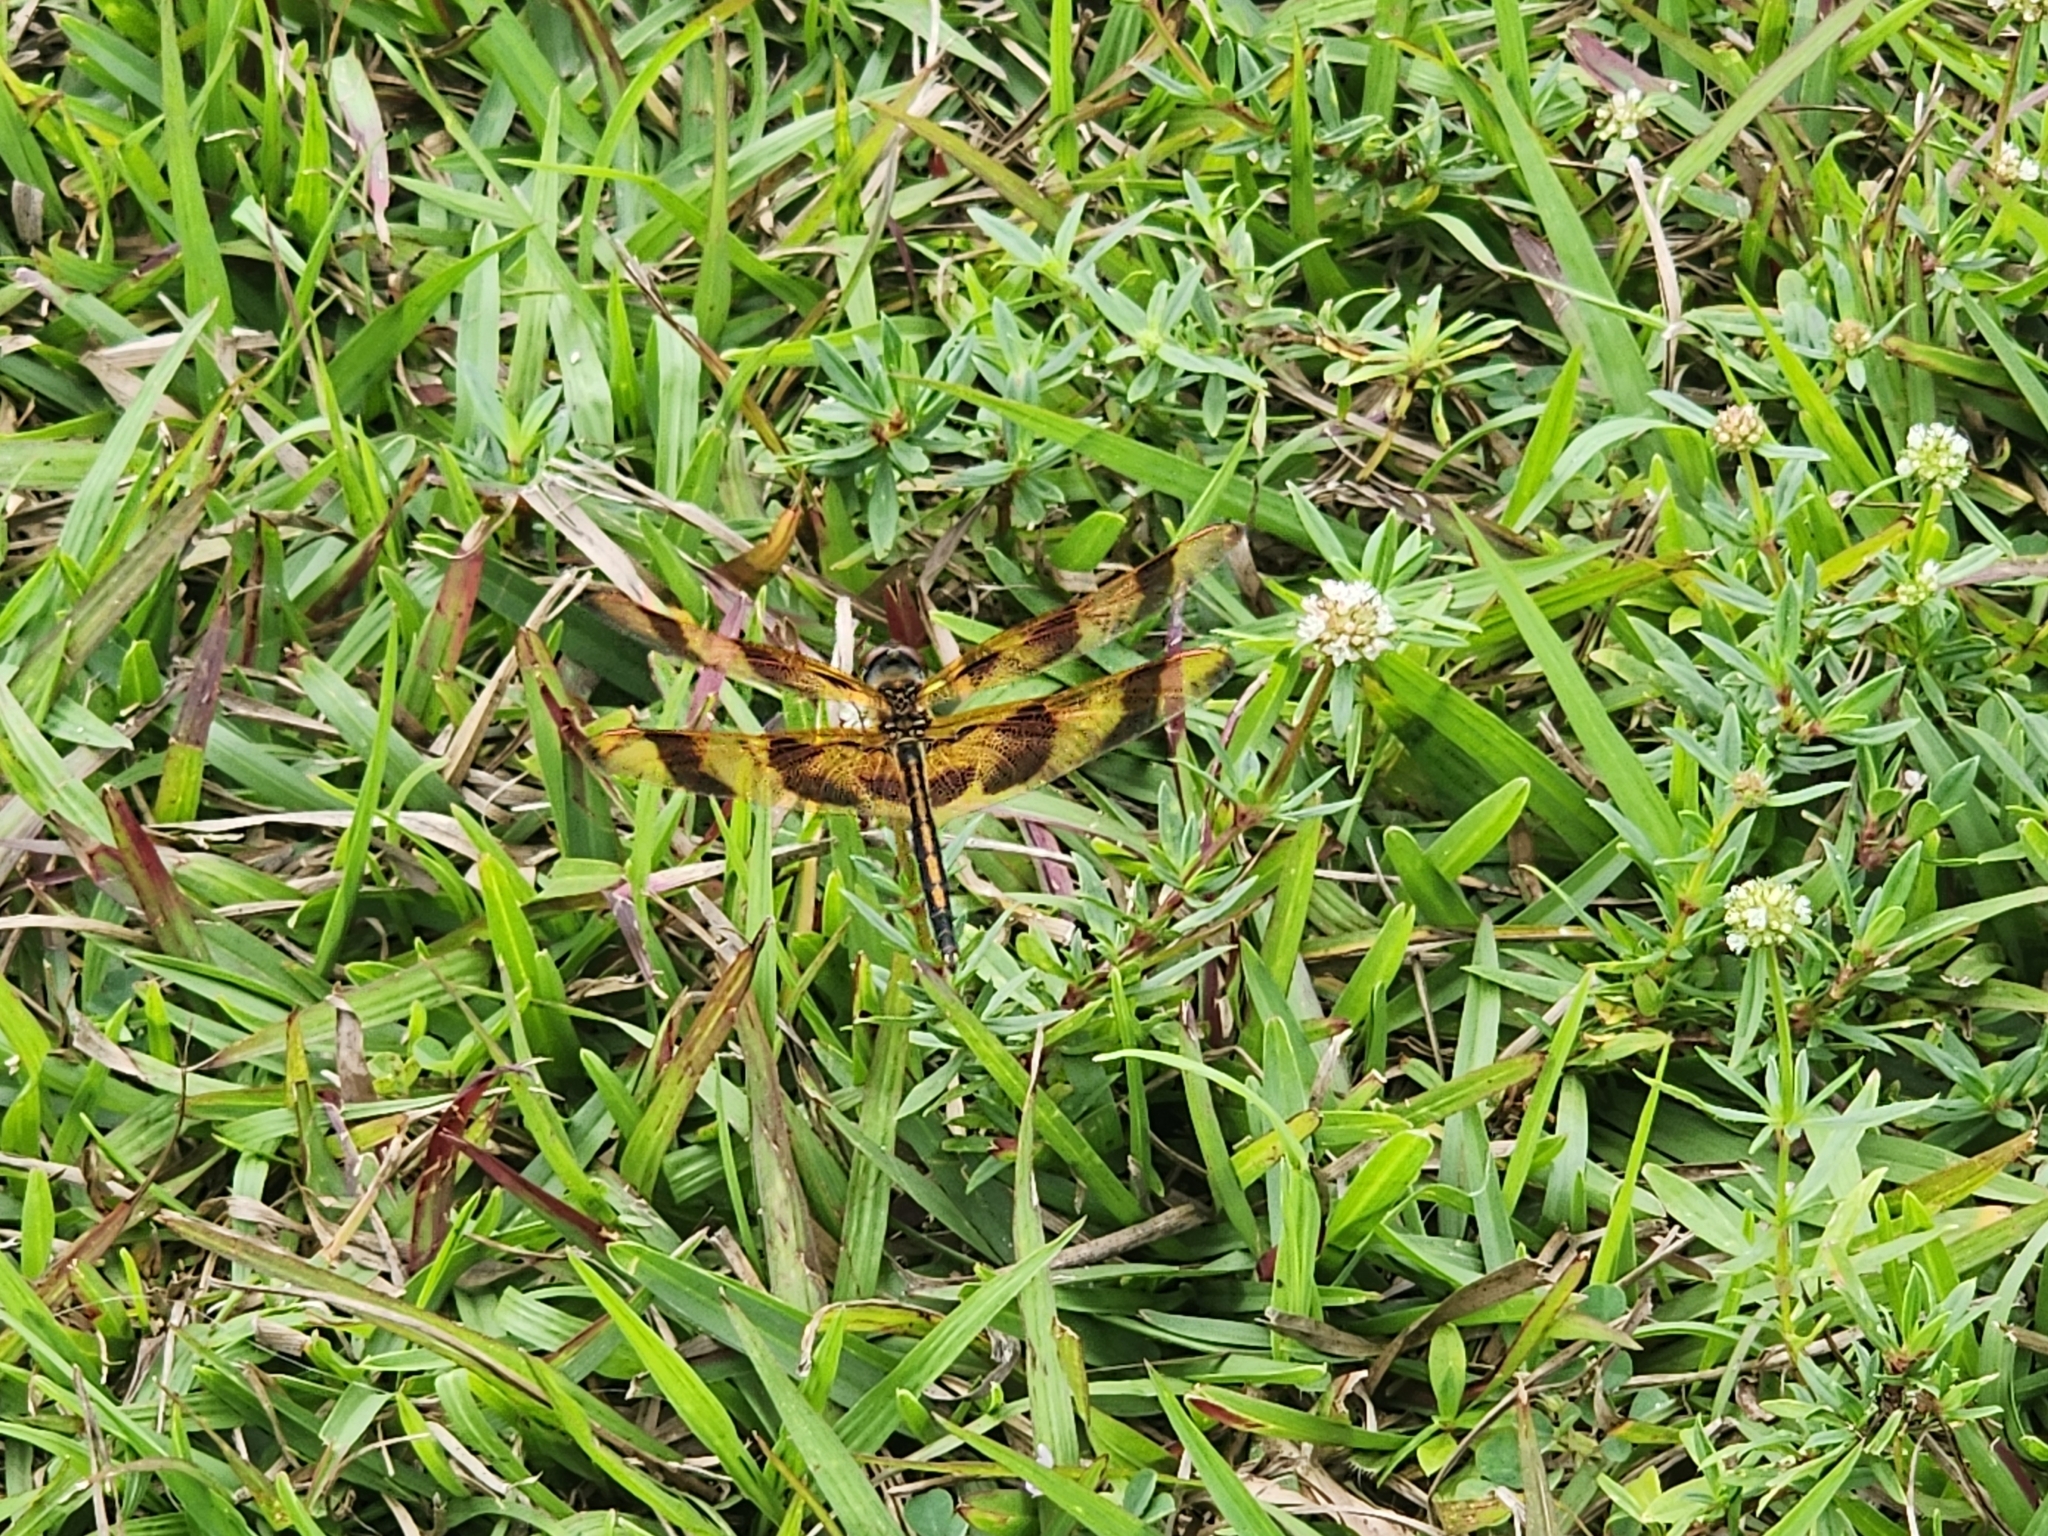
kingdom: Animalia
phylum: Arthropoda
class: Insecta
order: Odonata
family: Libellulidae
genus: Celithemis
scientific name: Celithemis eponina
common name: Halloween pennant
